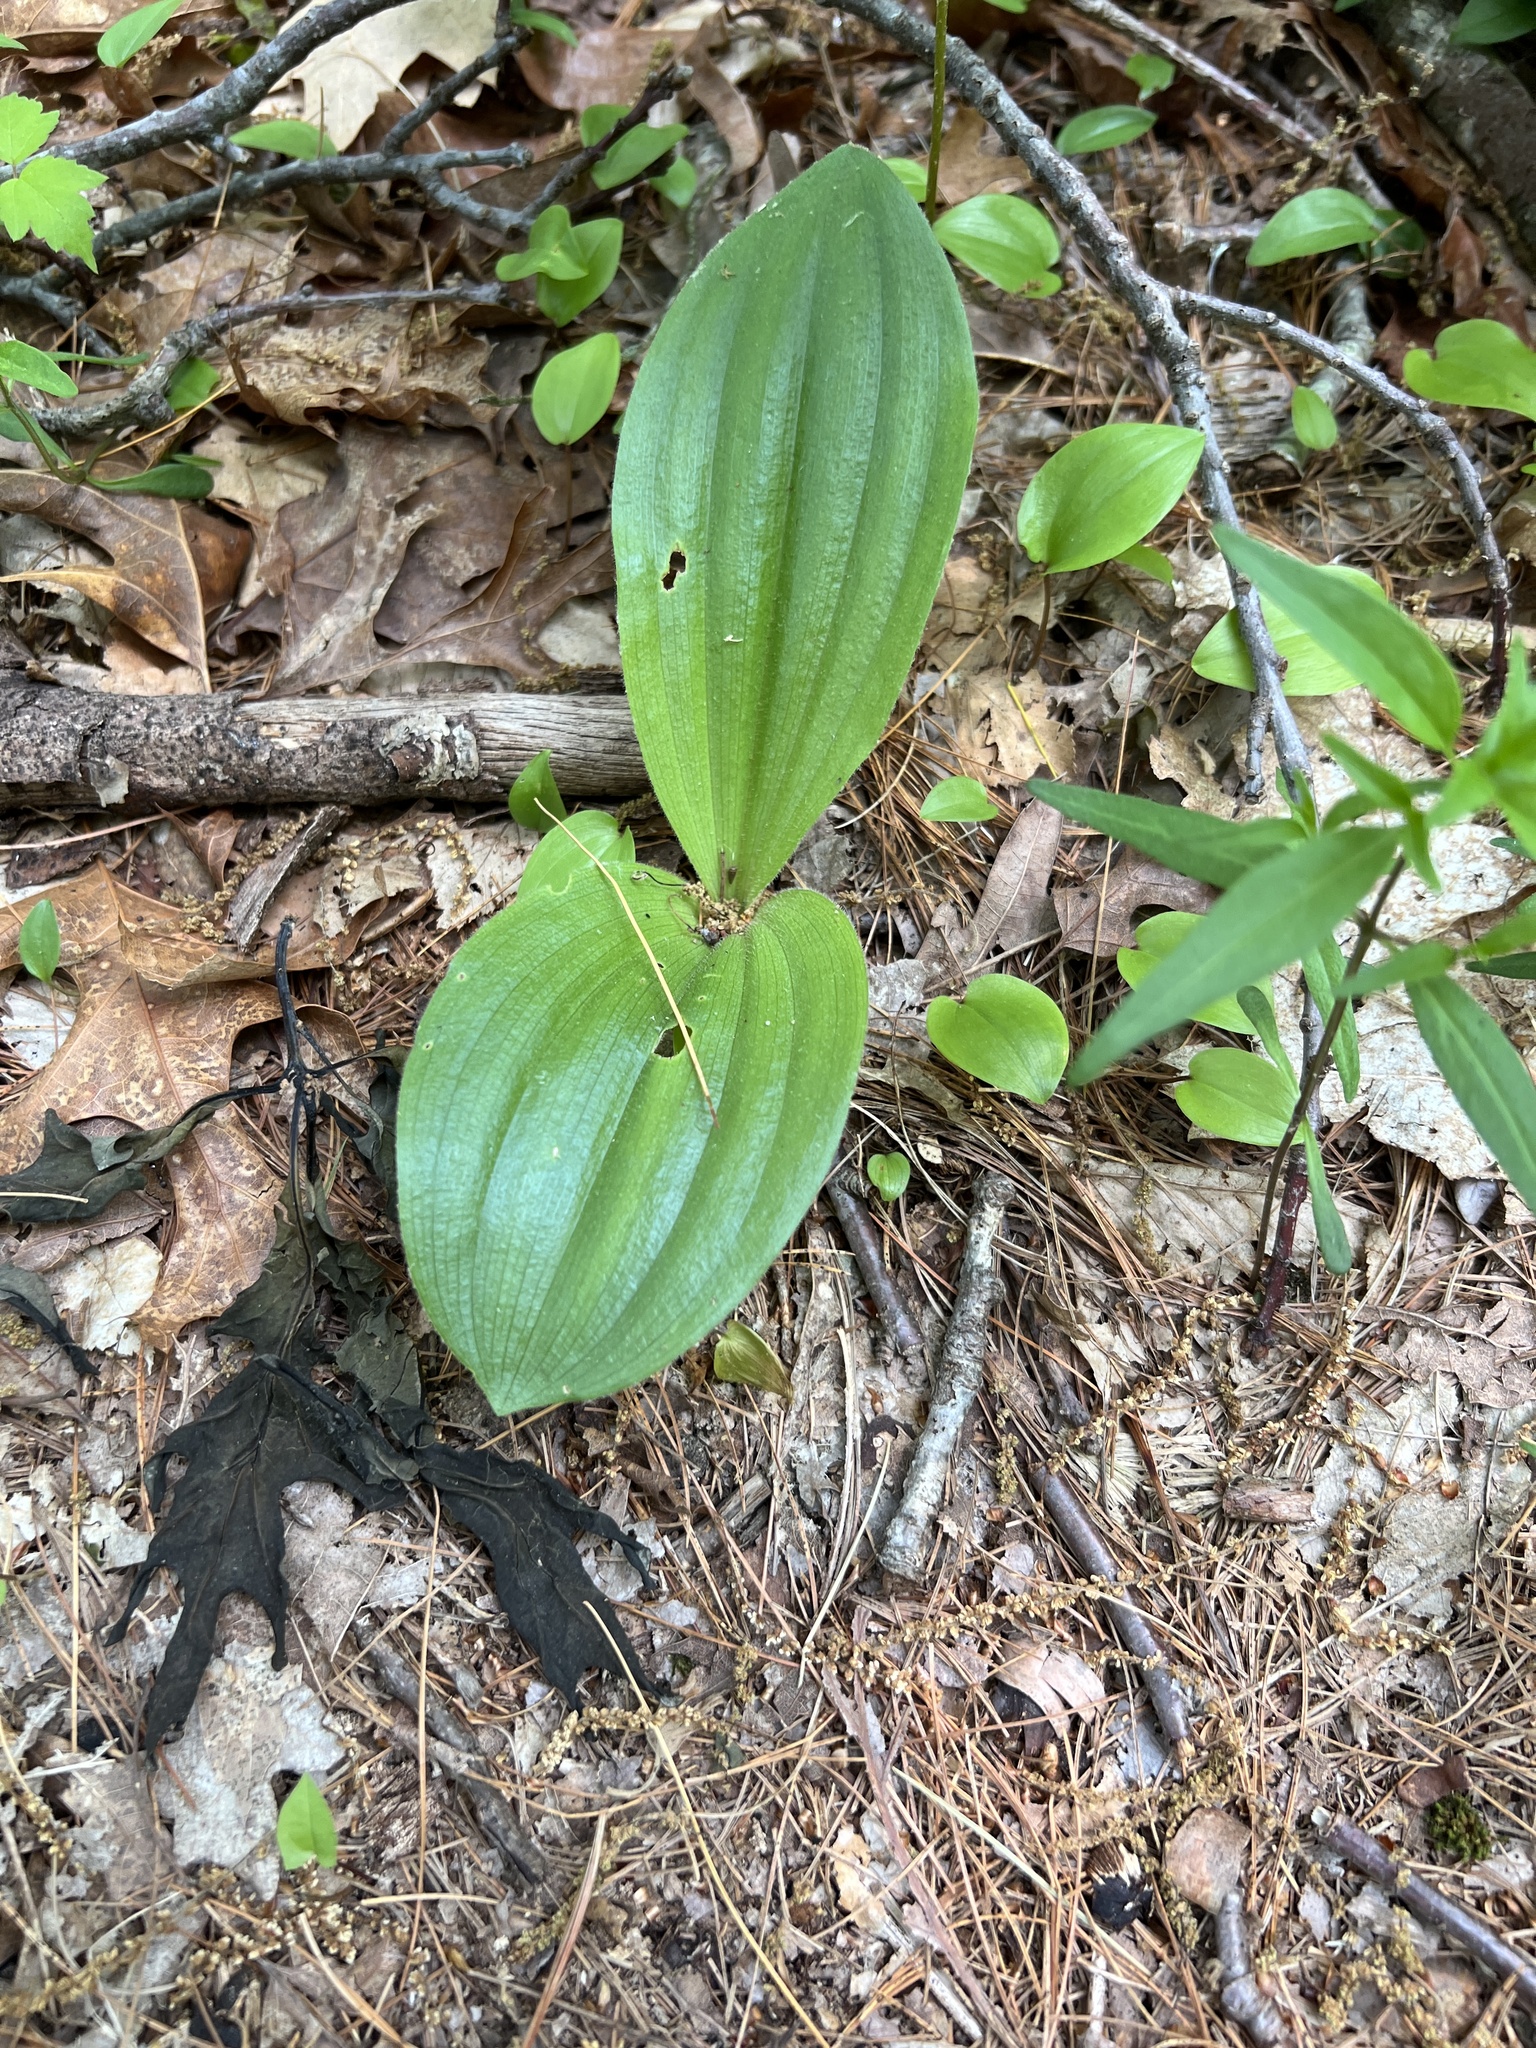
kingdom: Plantae
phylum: Tracheophyta
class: Liliopsida
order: Asparagales
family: Orchidaceae
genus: Cypripedium
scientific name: Cypripedium acaule
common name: Pink lady's-slipper
